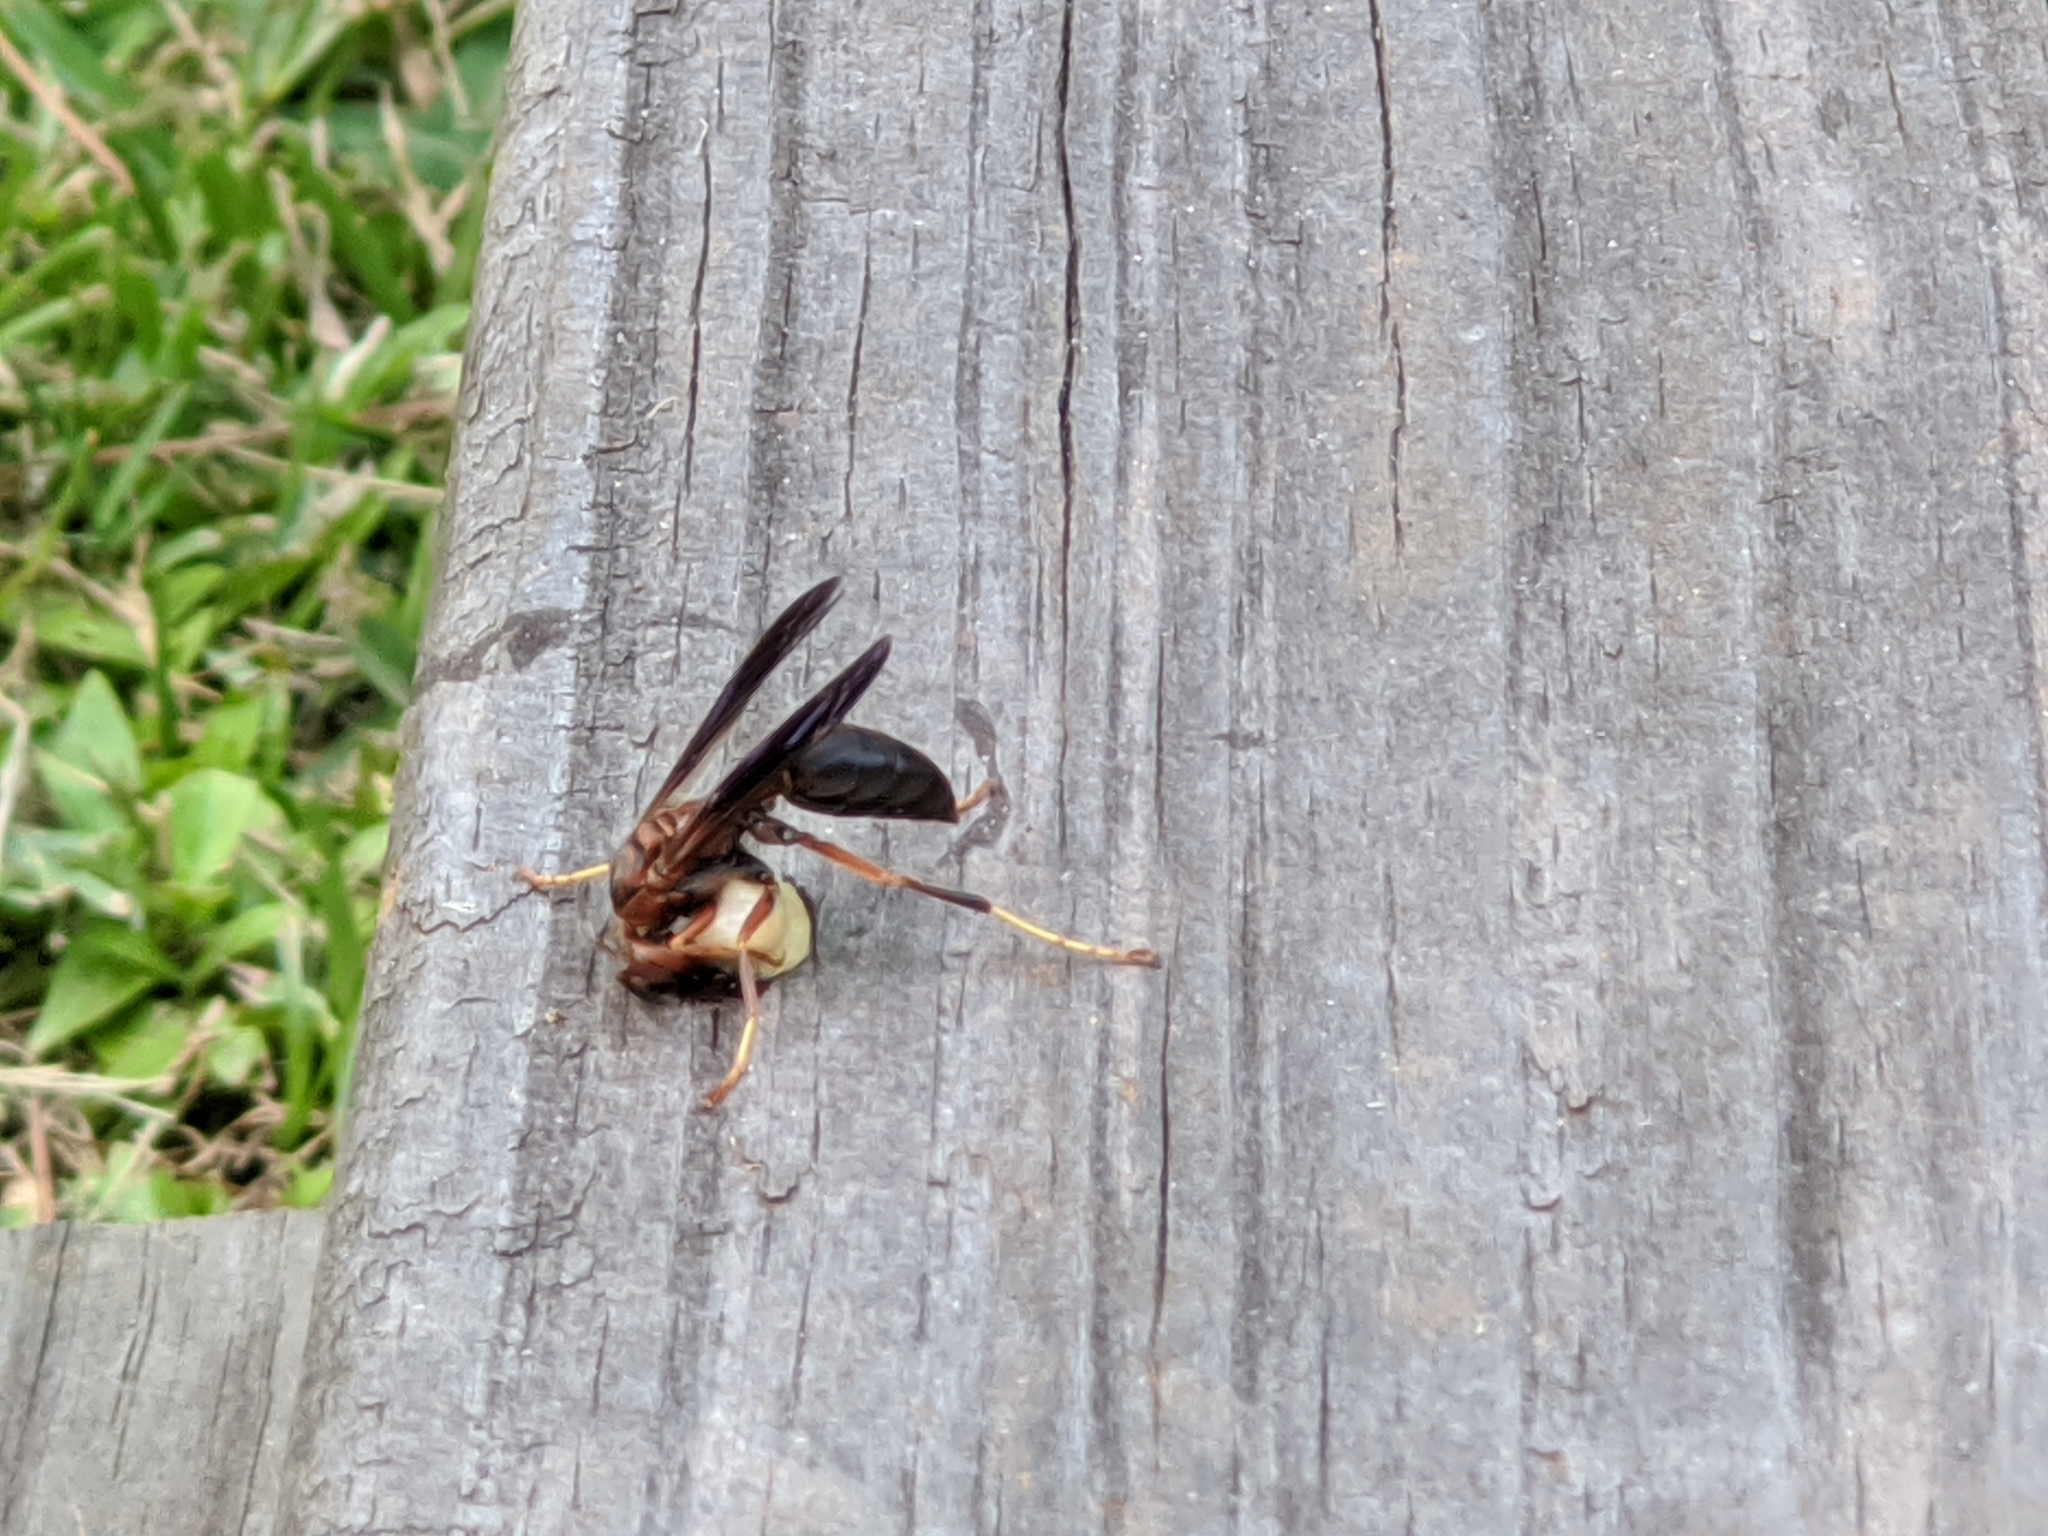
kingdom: Animalia
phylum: Arthropoda
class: Insecta
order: Hymenoptera
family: Vespidae
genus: Fuscopolistes
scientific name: Fuscopolistes
